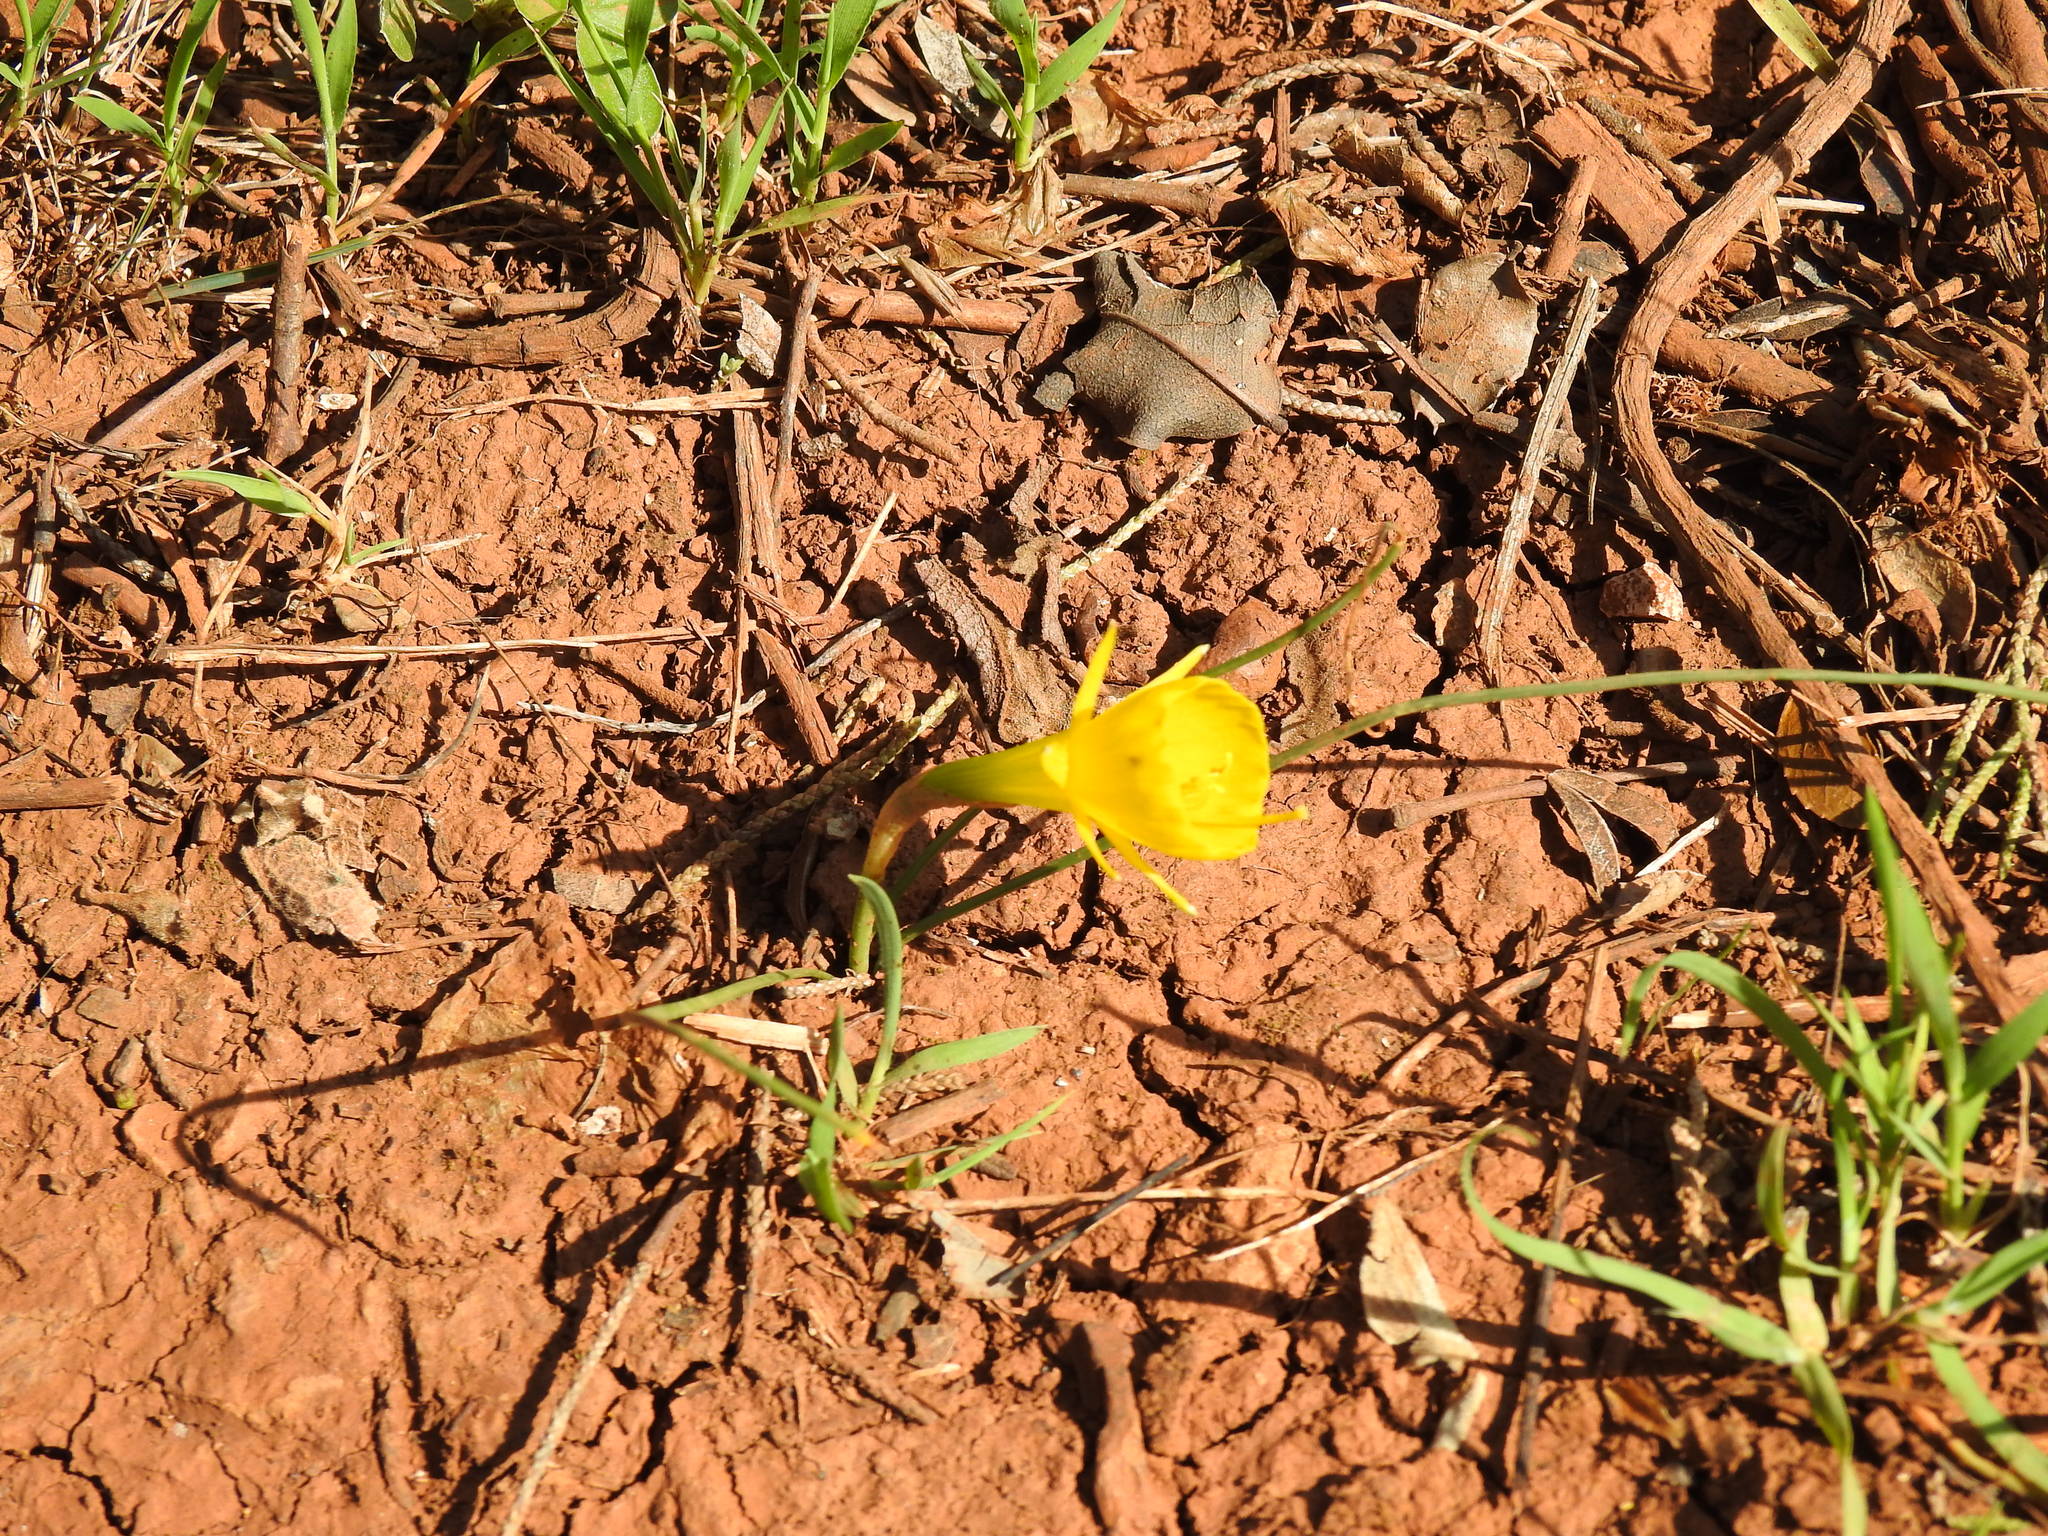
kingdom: Plantae
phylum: Tracheophyta
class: Liliopsida
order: Asparagales
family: Amaryllidaceae
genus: Narcissus
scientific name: Narcissus obesus
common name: Hoop petticoat daffodil
